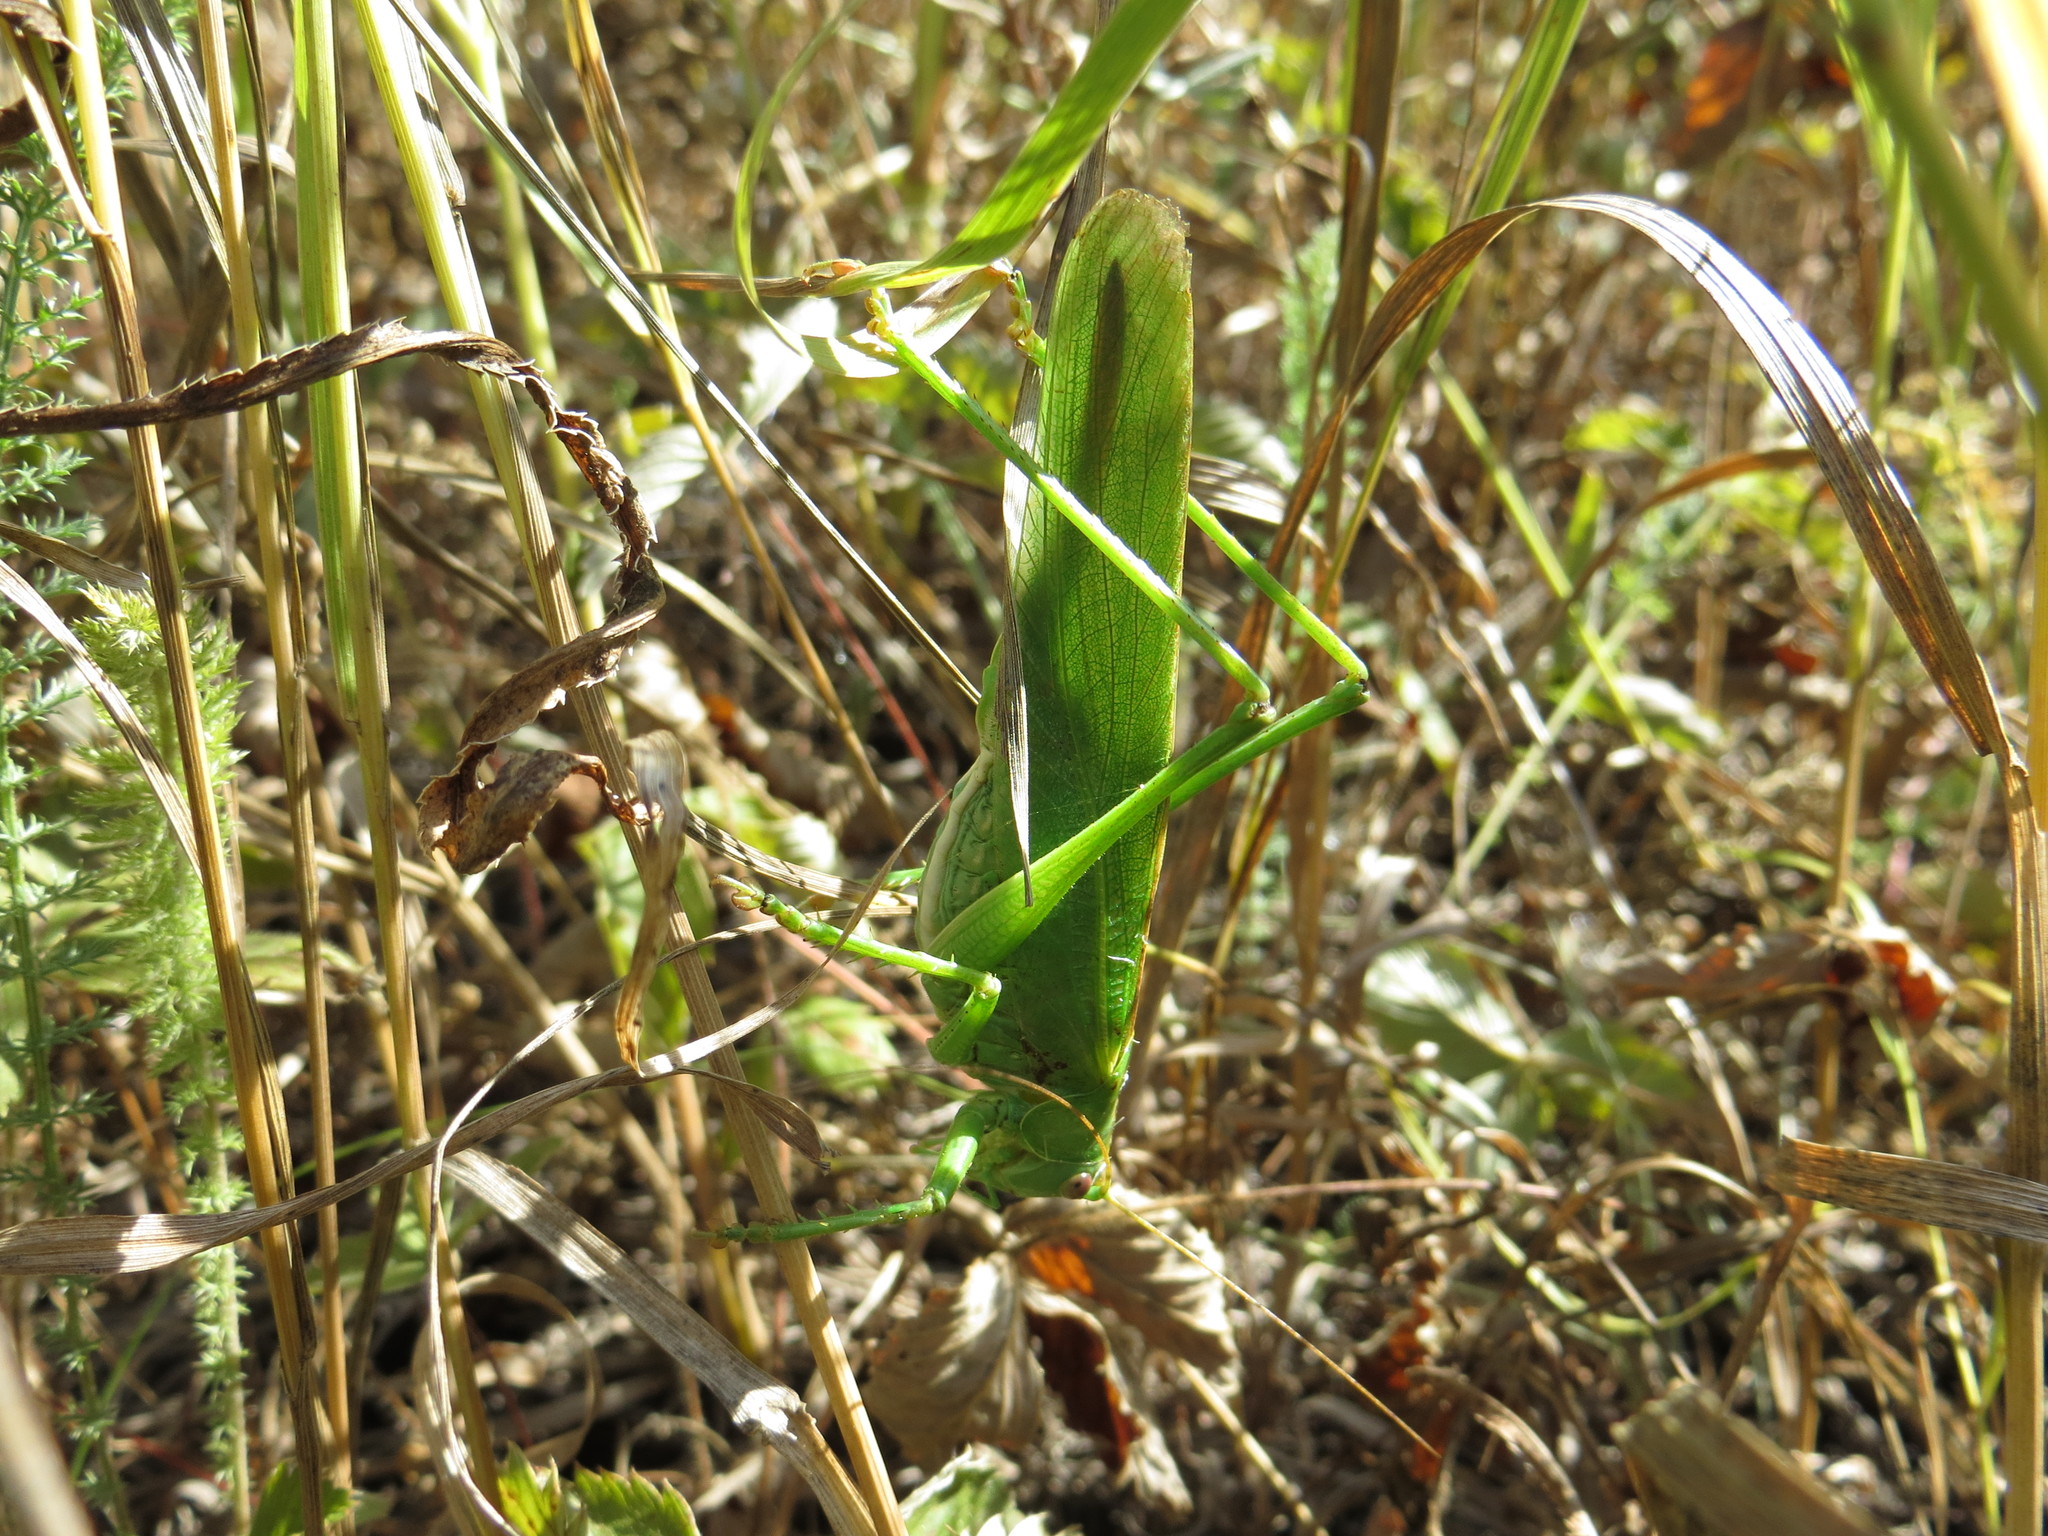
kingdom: Animalia
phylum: Arthropoda
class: Insecta
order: Orthoptera
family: Tettigoniidae
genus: Tettigonia
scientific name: Tettigonia viridissima
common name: Great green bush-cricket
